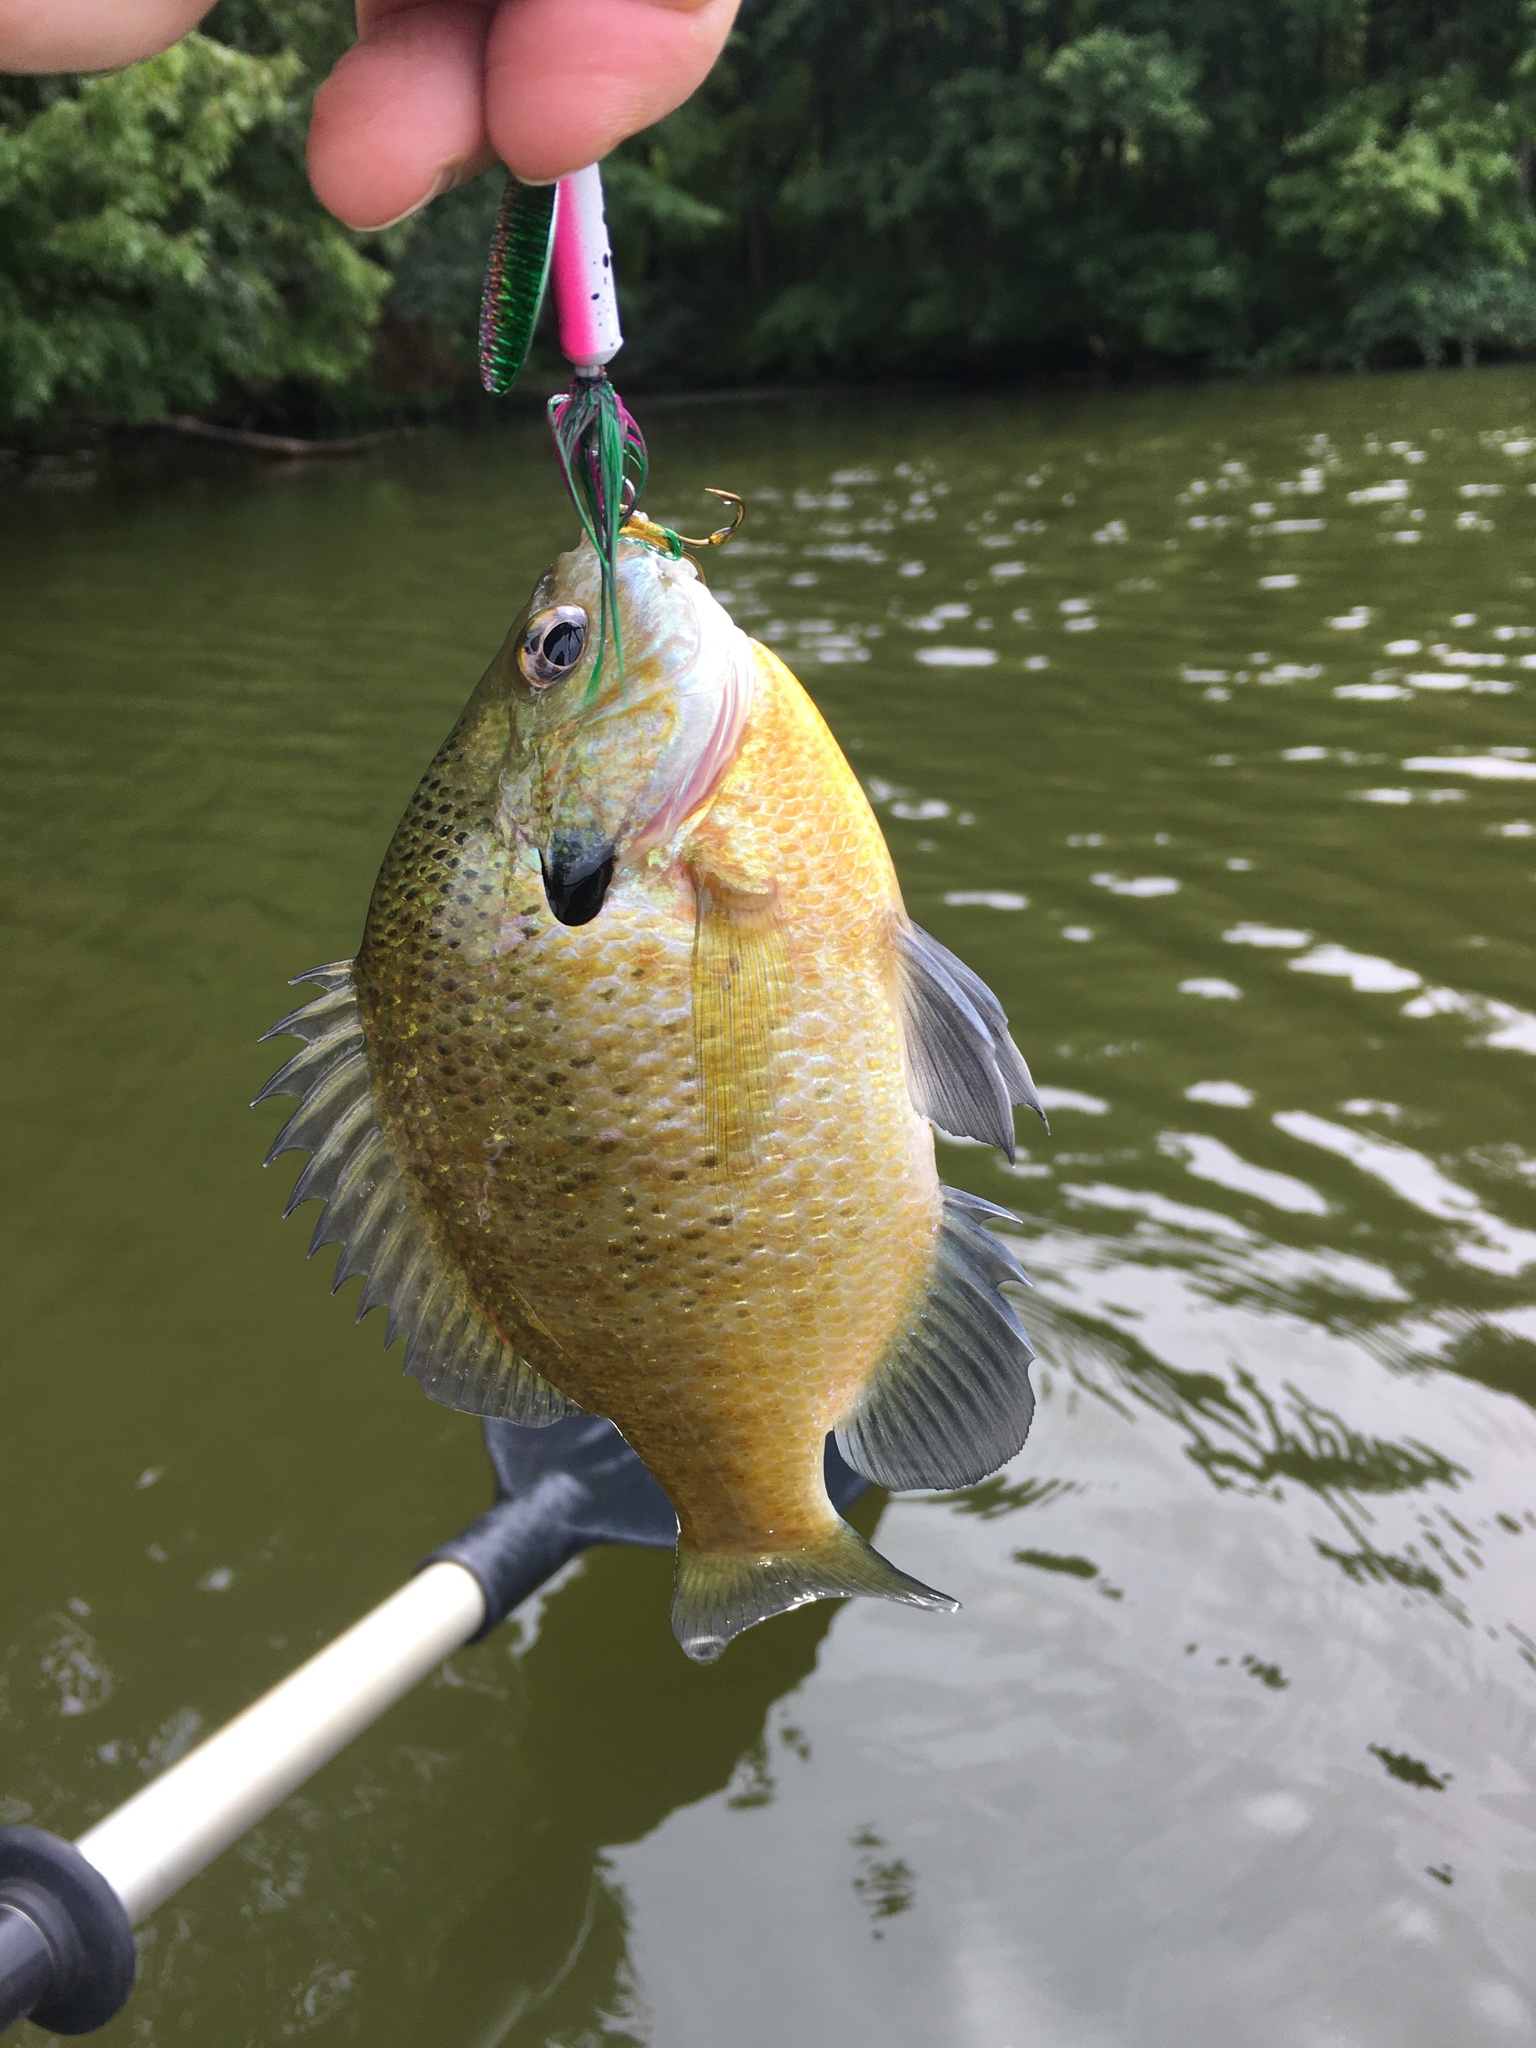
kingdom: Animalia
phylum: Chordata
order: Perciformes
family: Centrarchidae
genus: Lepomis
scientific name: Lepomis macrochirus
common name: Bluegill
